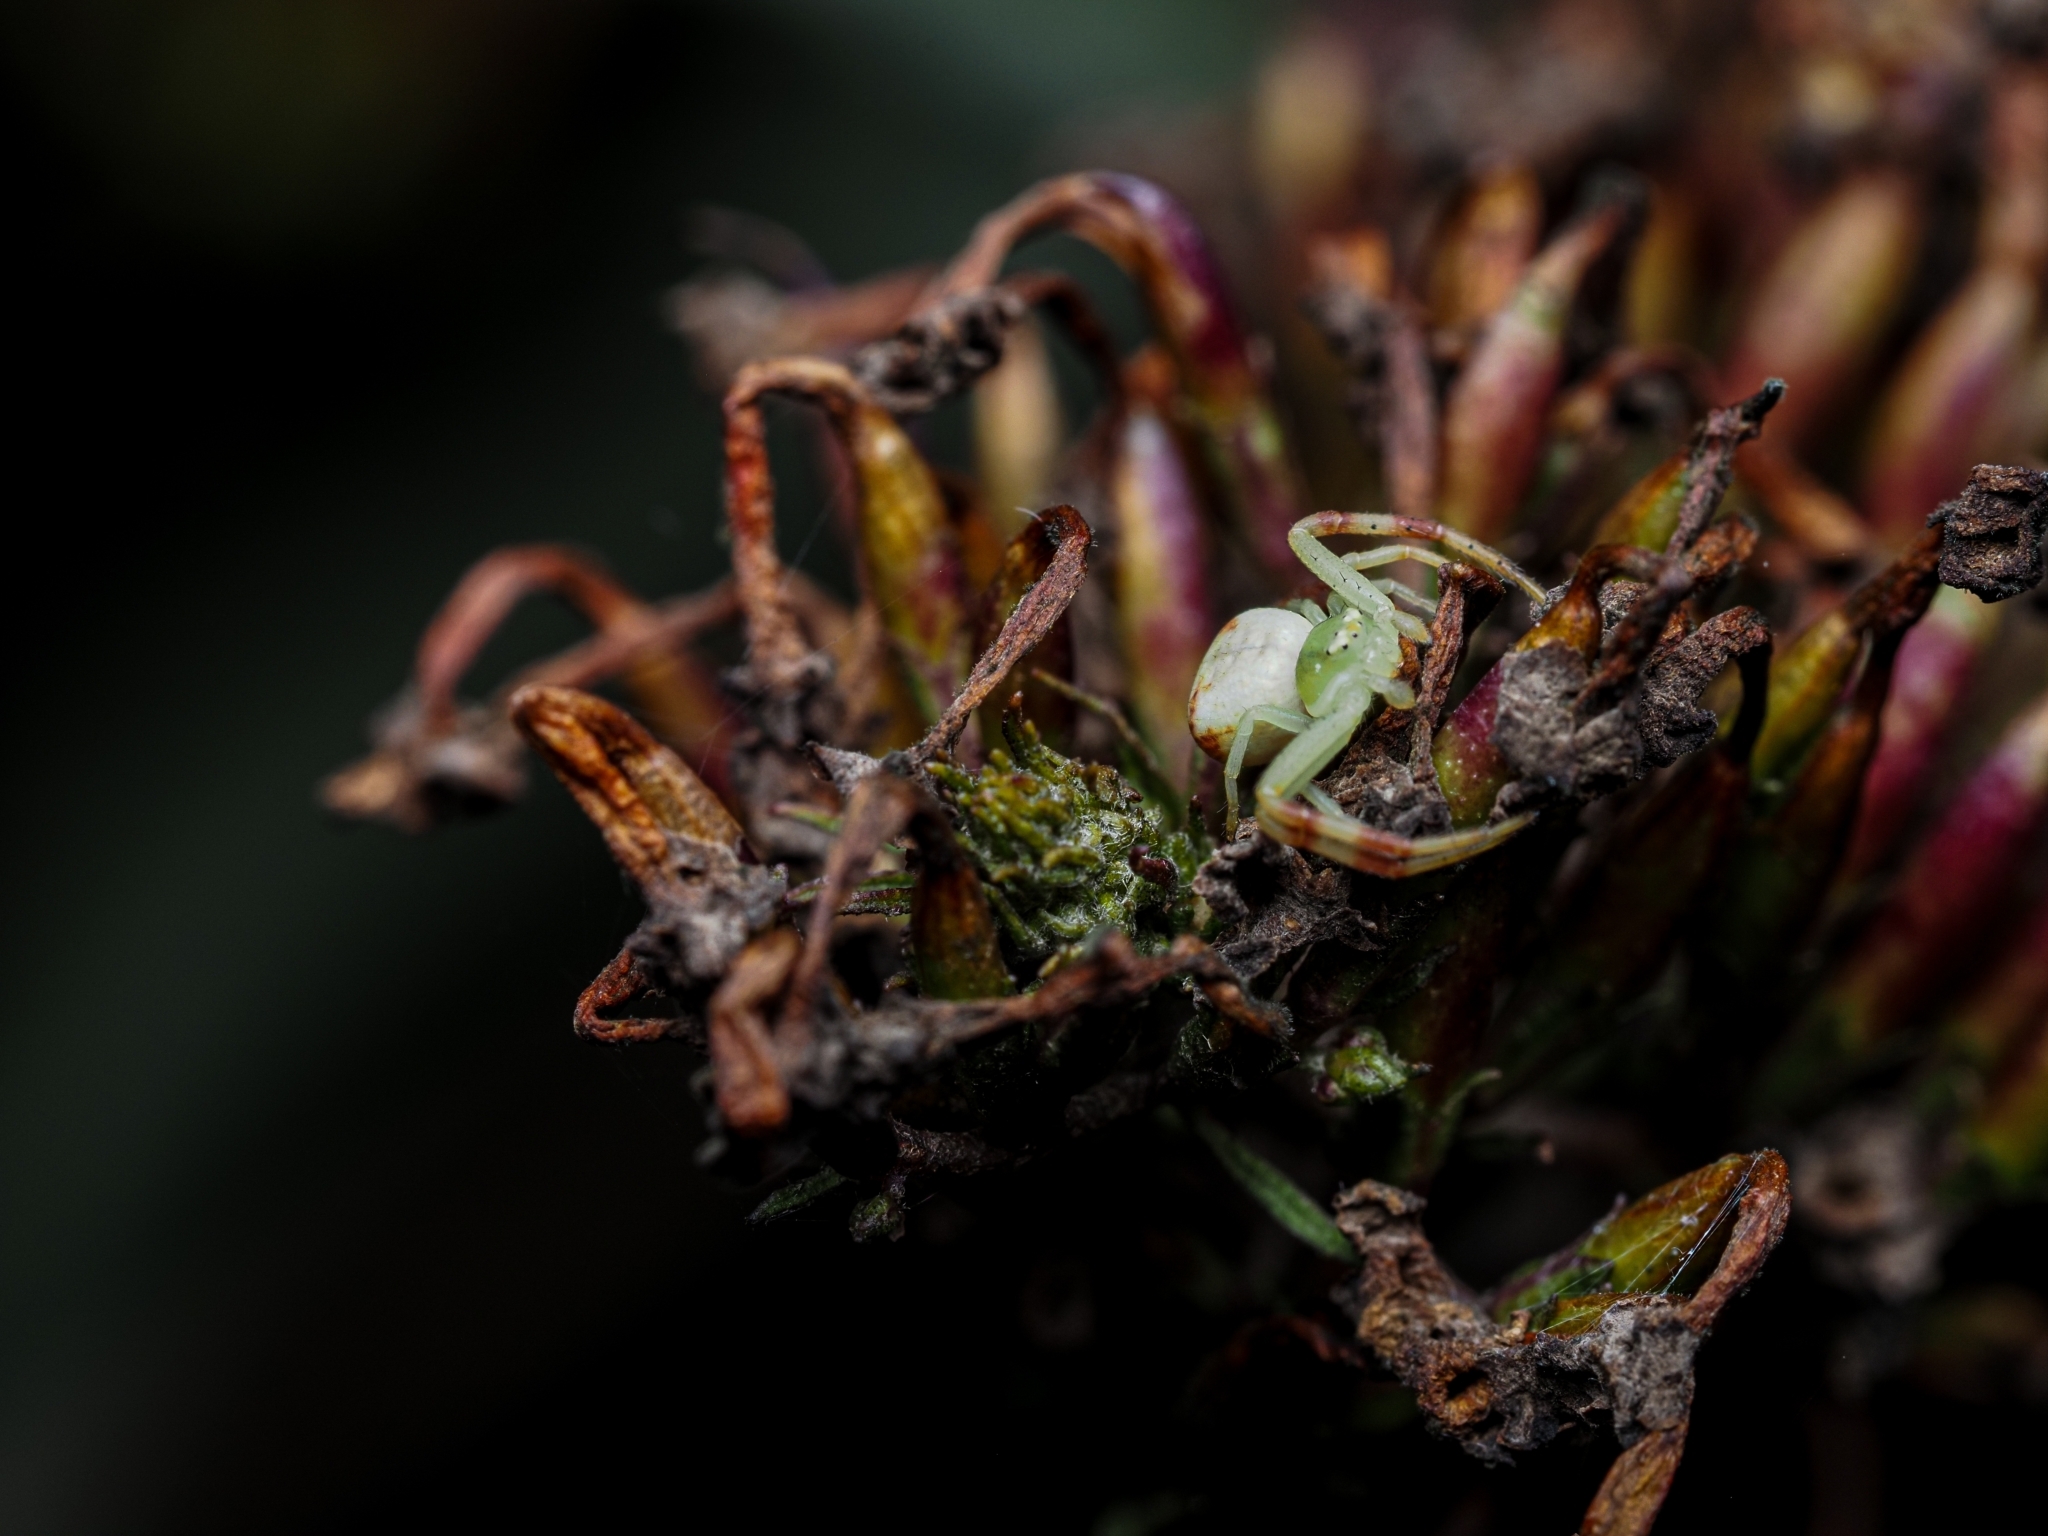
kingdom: Animalia
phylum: Arthropoda
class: Arachnida
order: Araneae
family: Thomisidae
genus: Ebrechtella
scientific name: Ebrechtella tricuspidata
